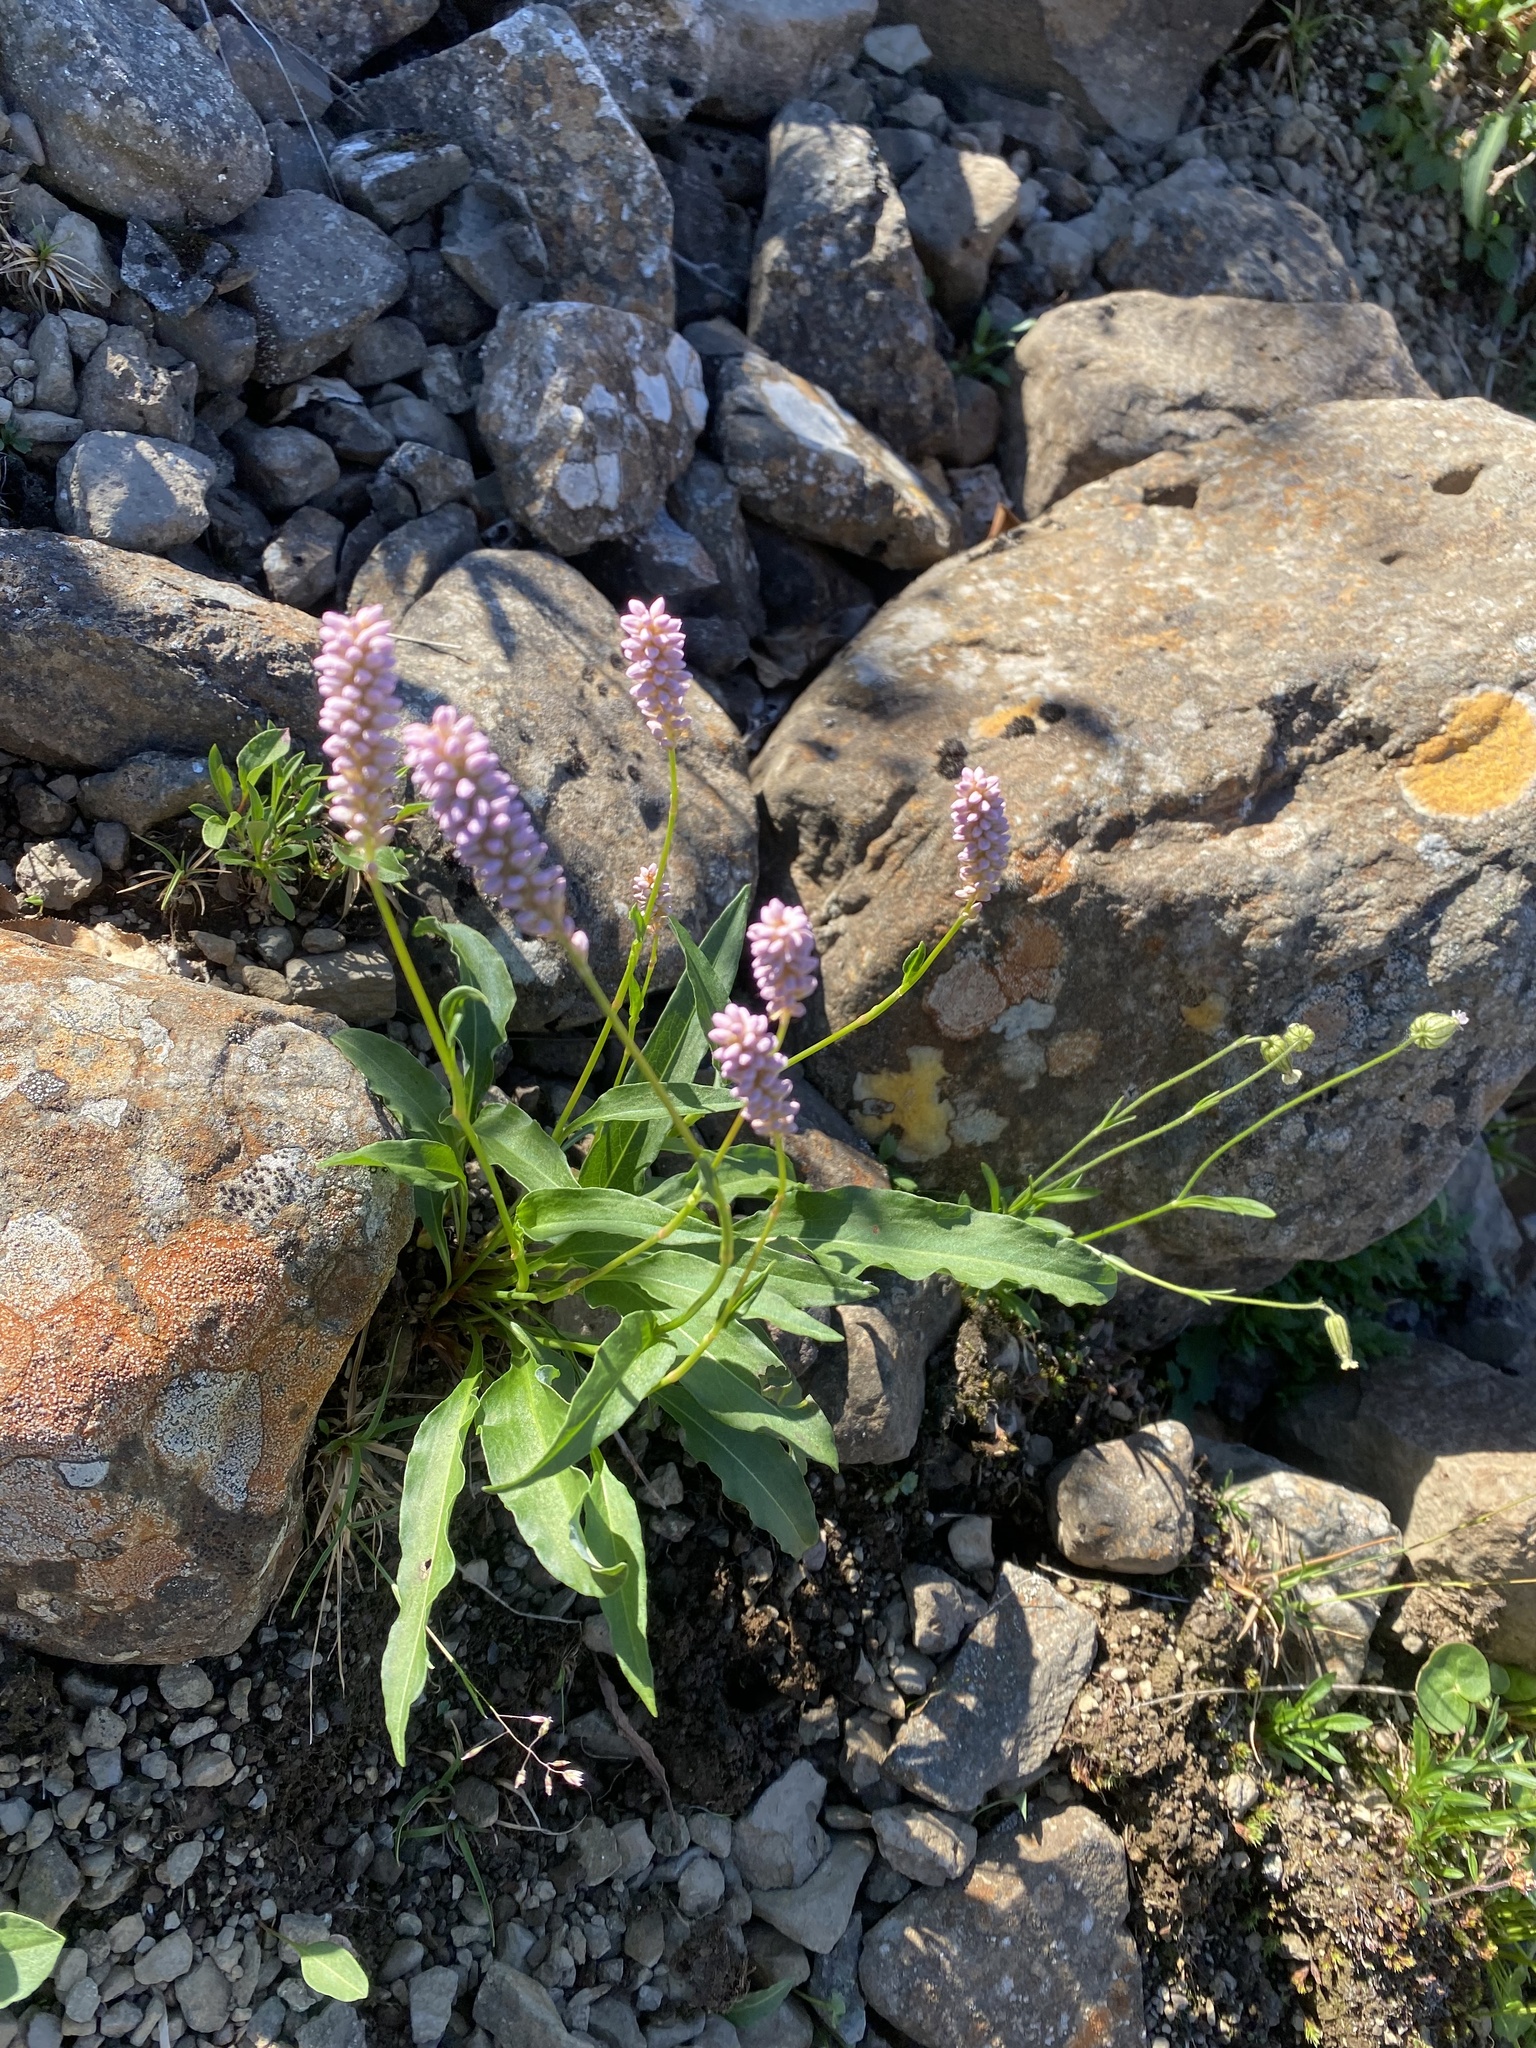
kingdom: Plantae
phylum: Tracheophyta
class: Magnoliopsida
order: Caryophyllales
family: Polygonaceae
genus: Bistorta
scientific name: Bistorta officinalis
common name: Common bistort
